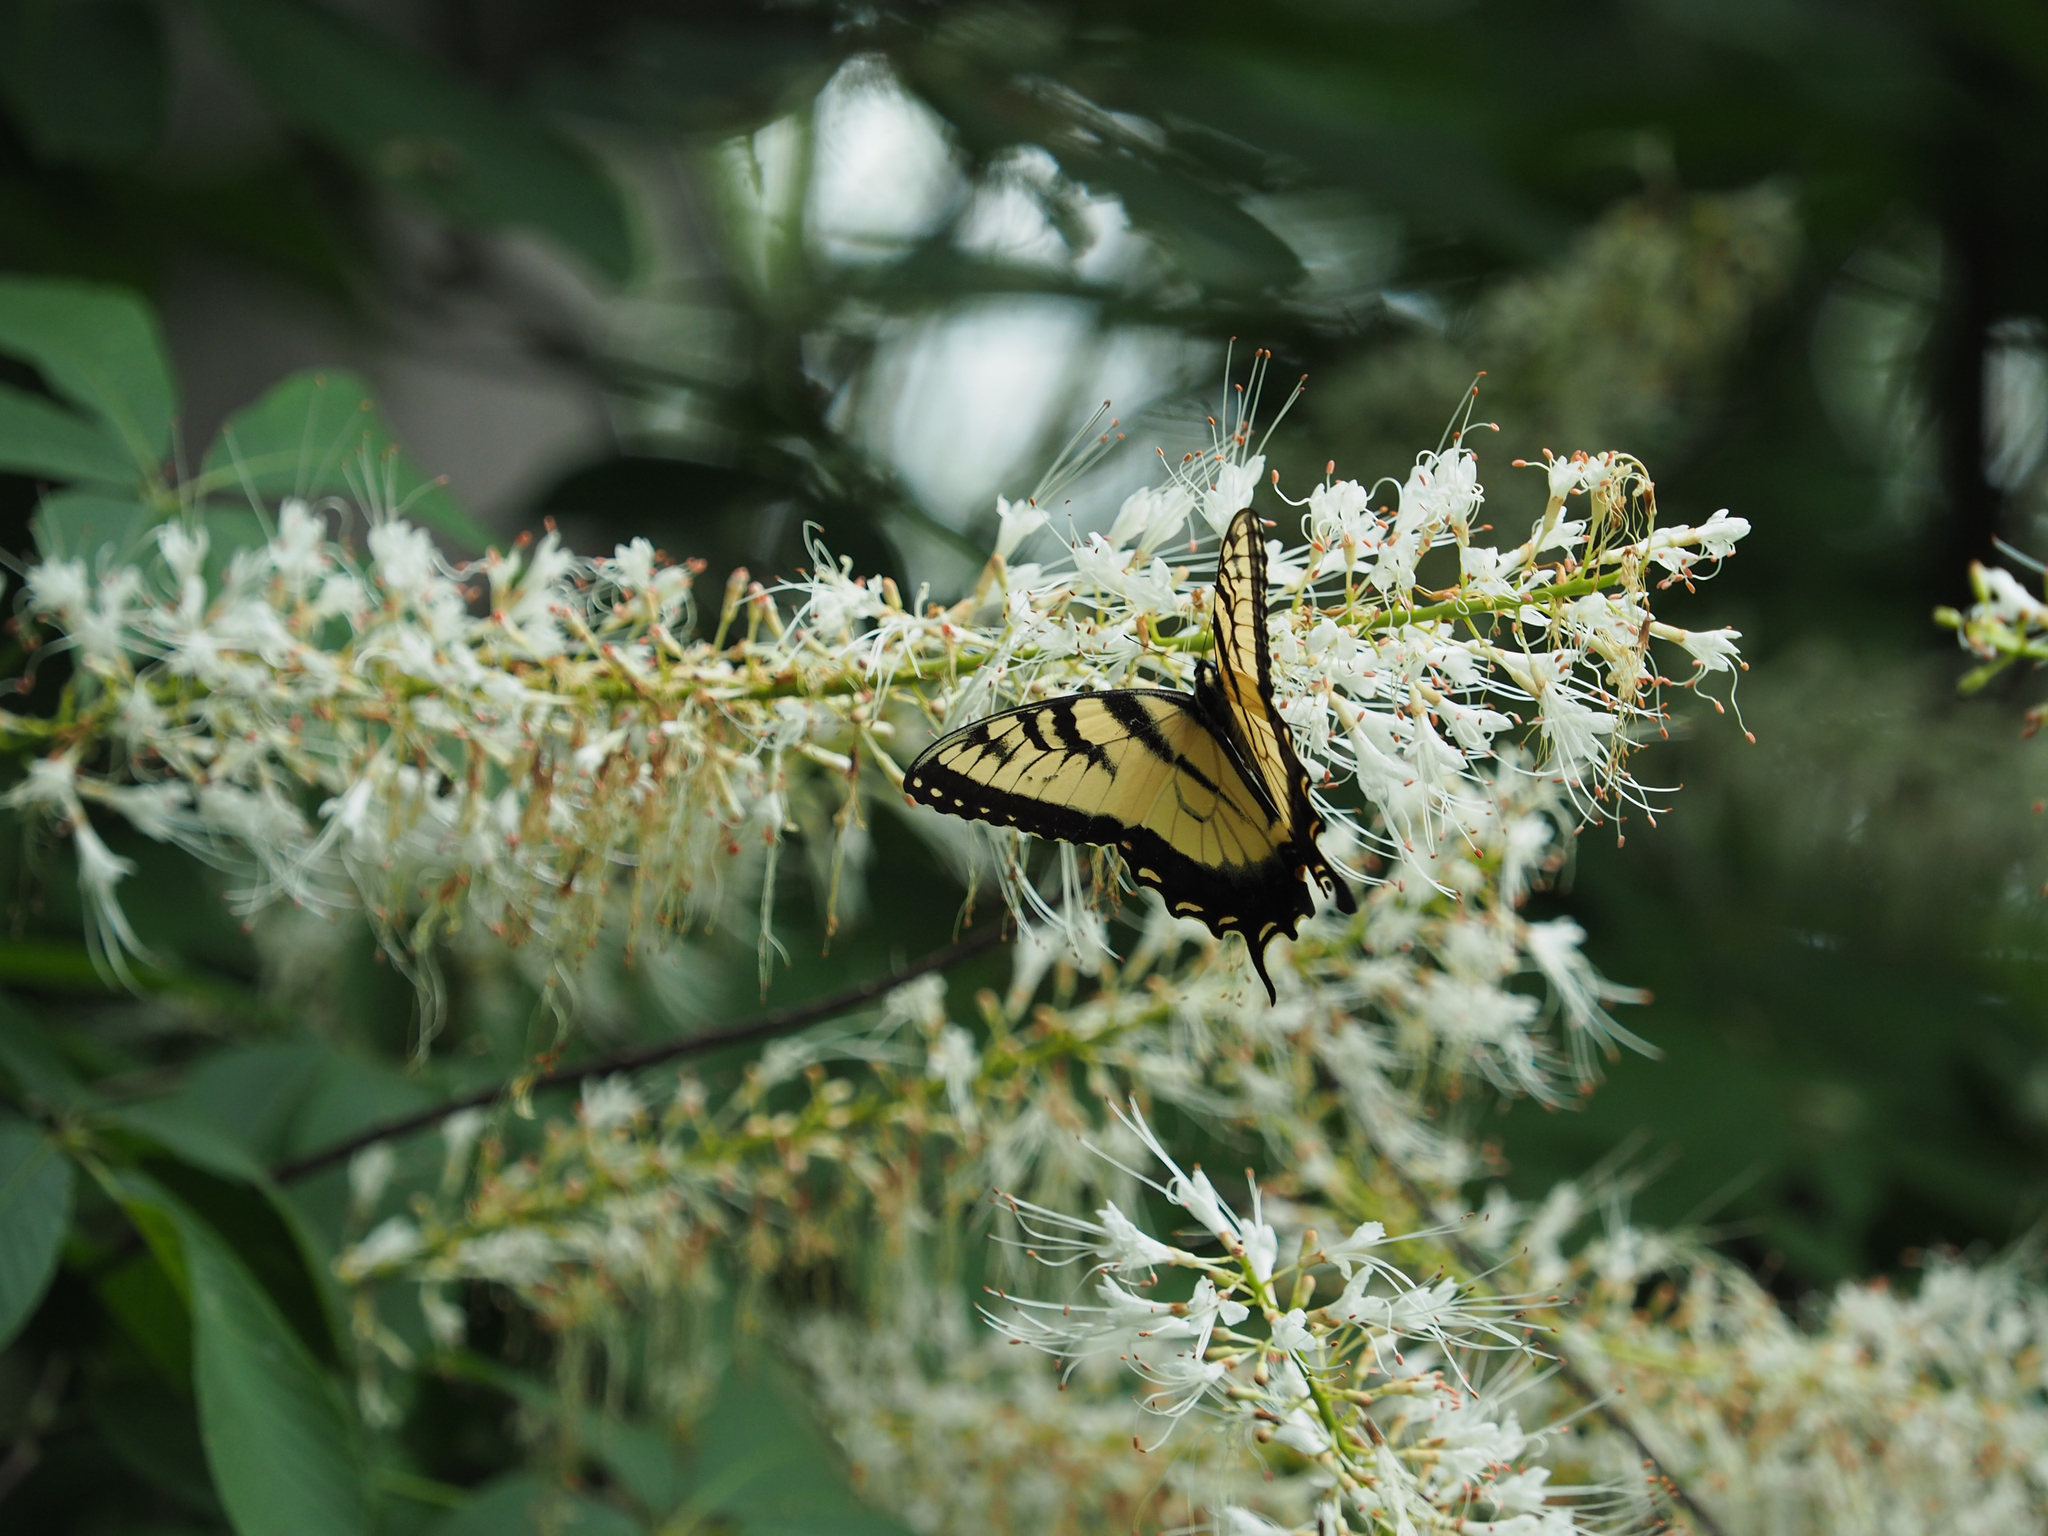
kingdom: Animalia
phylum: Arthropoda
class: Insecta
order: Lepidoptera
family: Papilionidae
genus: Papilio
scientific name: Papilio glaucus
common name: Tiger swallowtail
